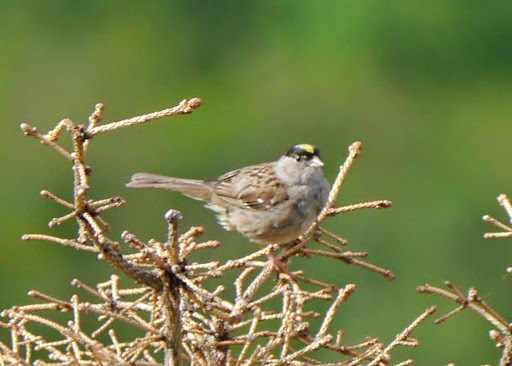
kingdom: Animalia
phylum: Chordata
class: Aves
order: Passeriformes
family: Passerellidae
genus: Zonotrichia
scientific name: Zonotrichia atricapilla
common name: Golden-crowned sparrow
